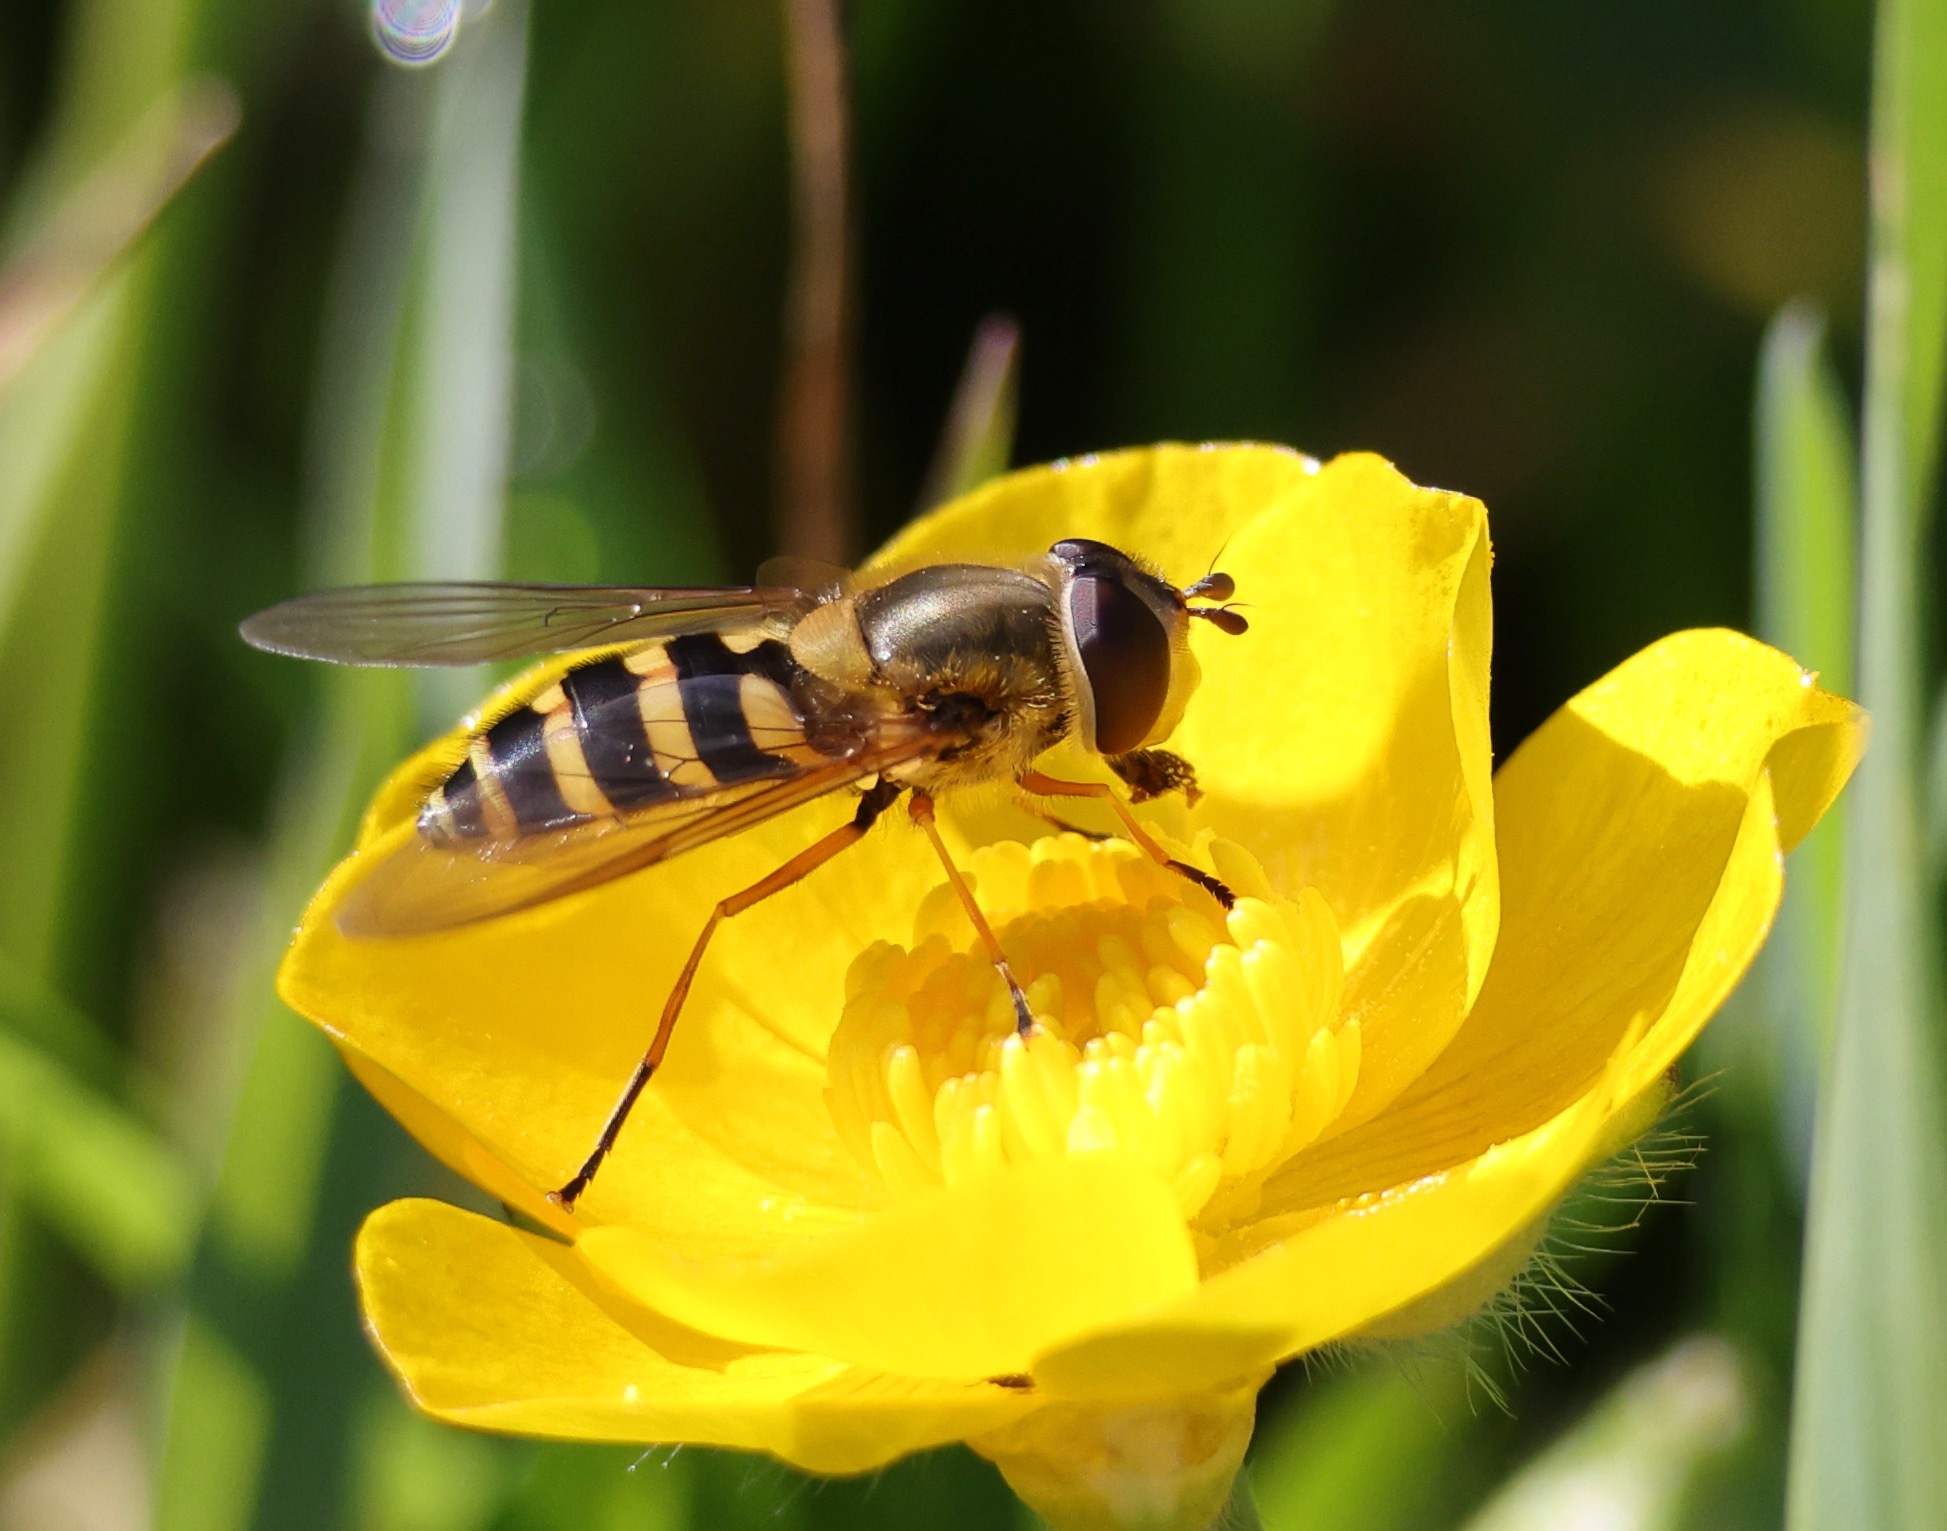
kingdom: Animalia
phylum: Arthropoda
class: Insecta
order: Diptera
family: Syrphidae
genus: Syrphus
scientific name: Syrphus ribesii
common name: Common flower fly
